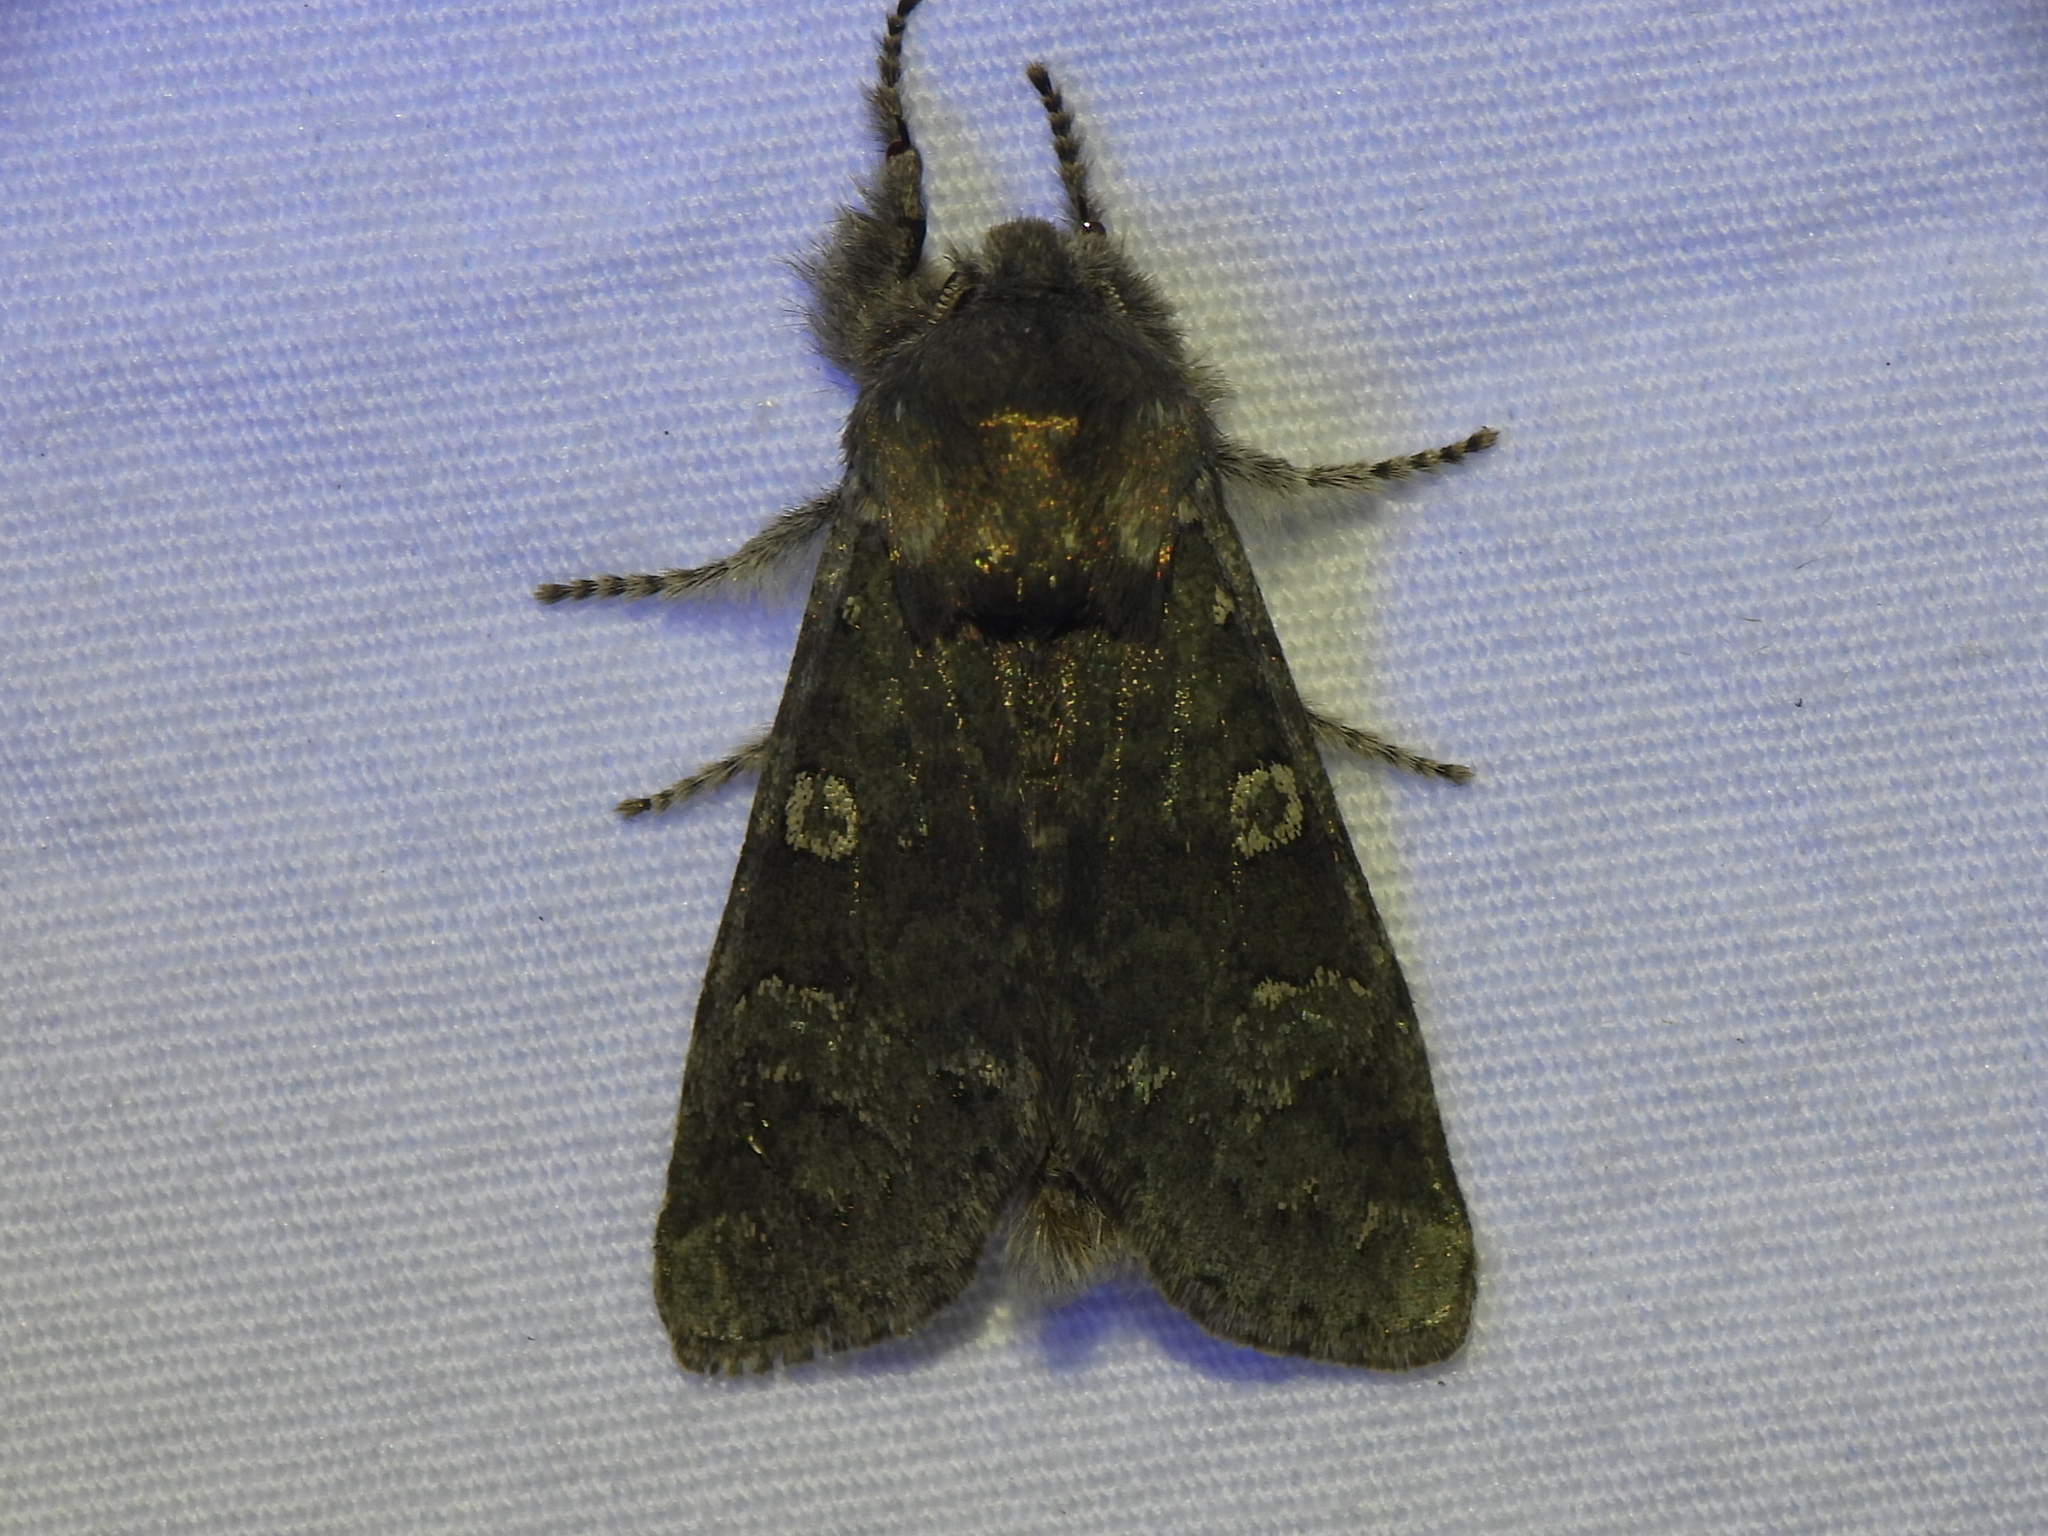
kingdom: Animalia
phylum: Arthropoda
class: Insecta
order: Lepidoptera
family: Noctuidae
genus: Psaphida
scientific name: Psaphida rolandi
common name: Roland's sallow
